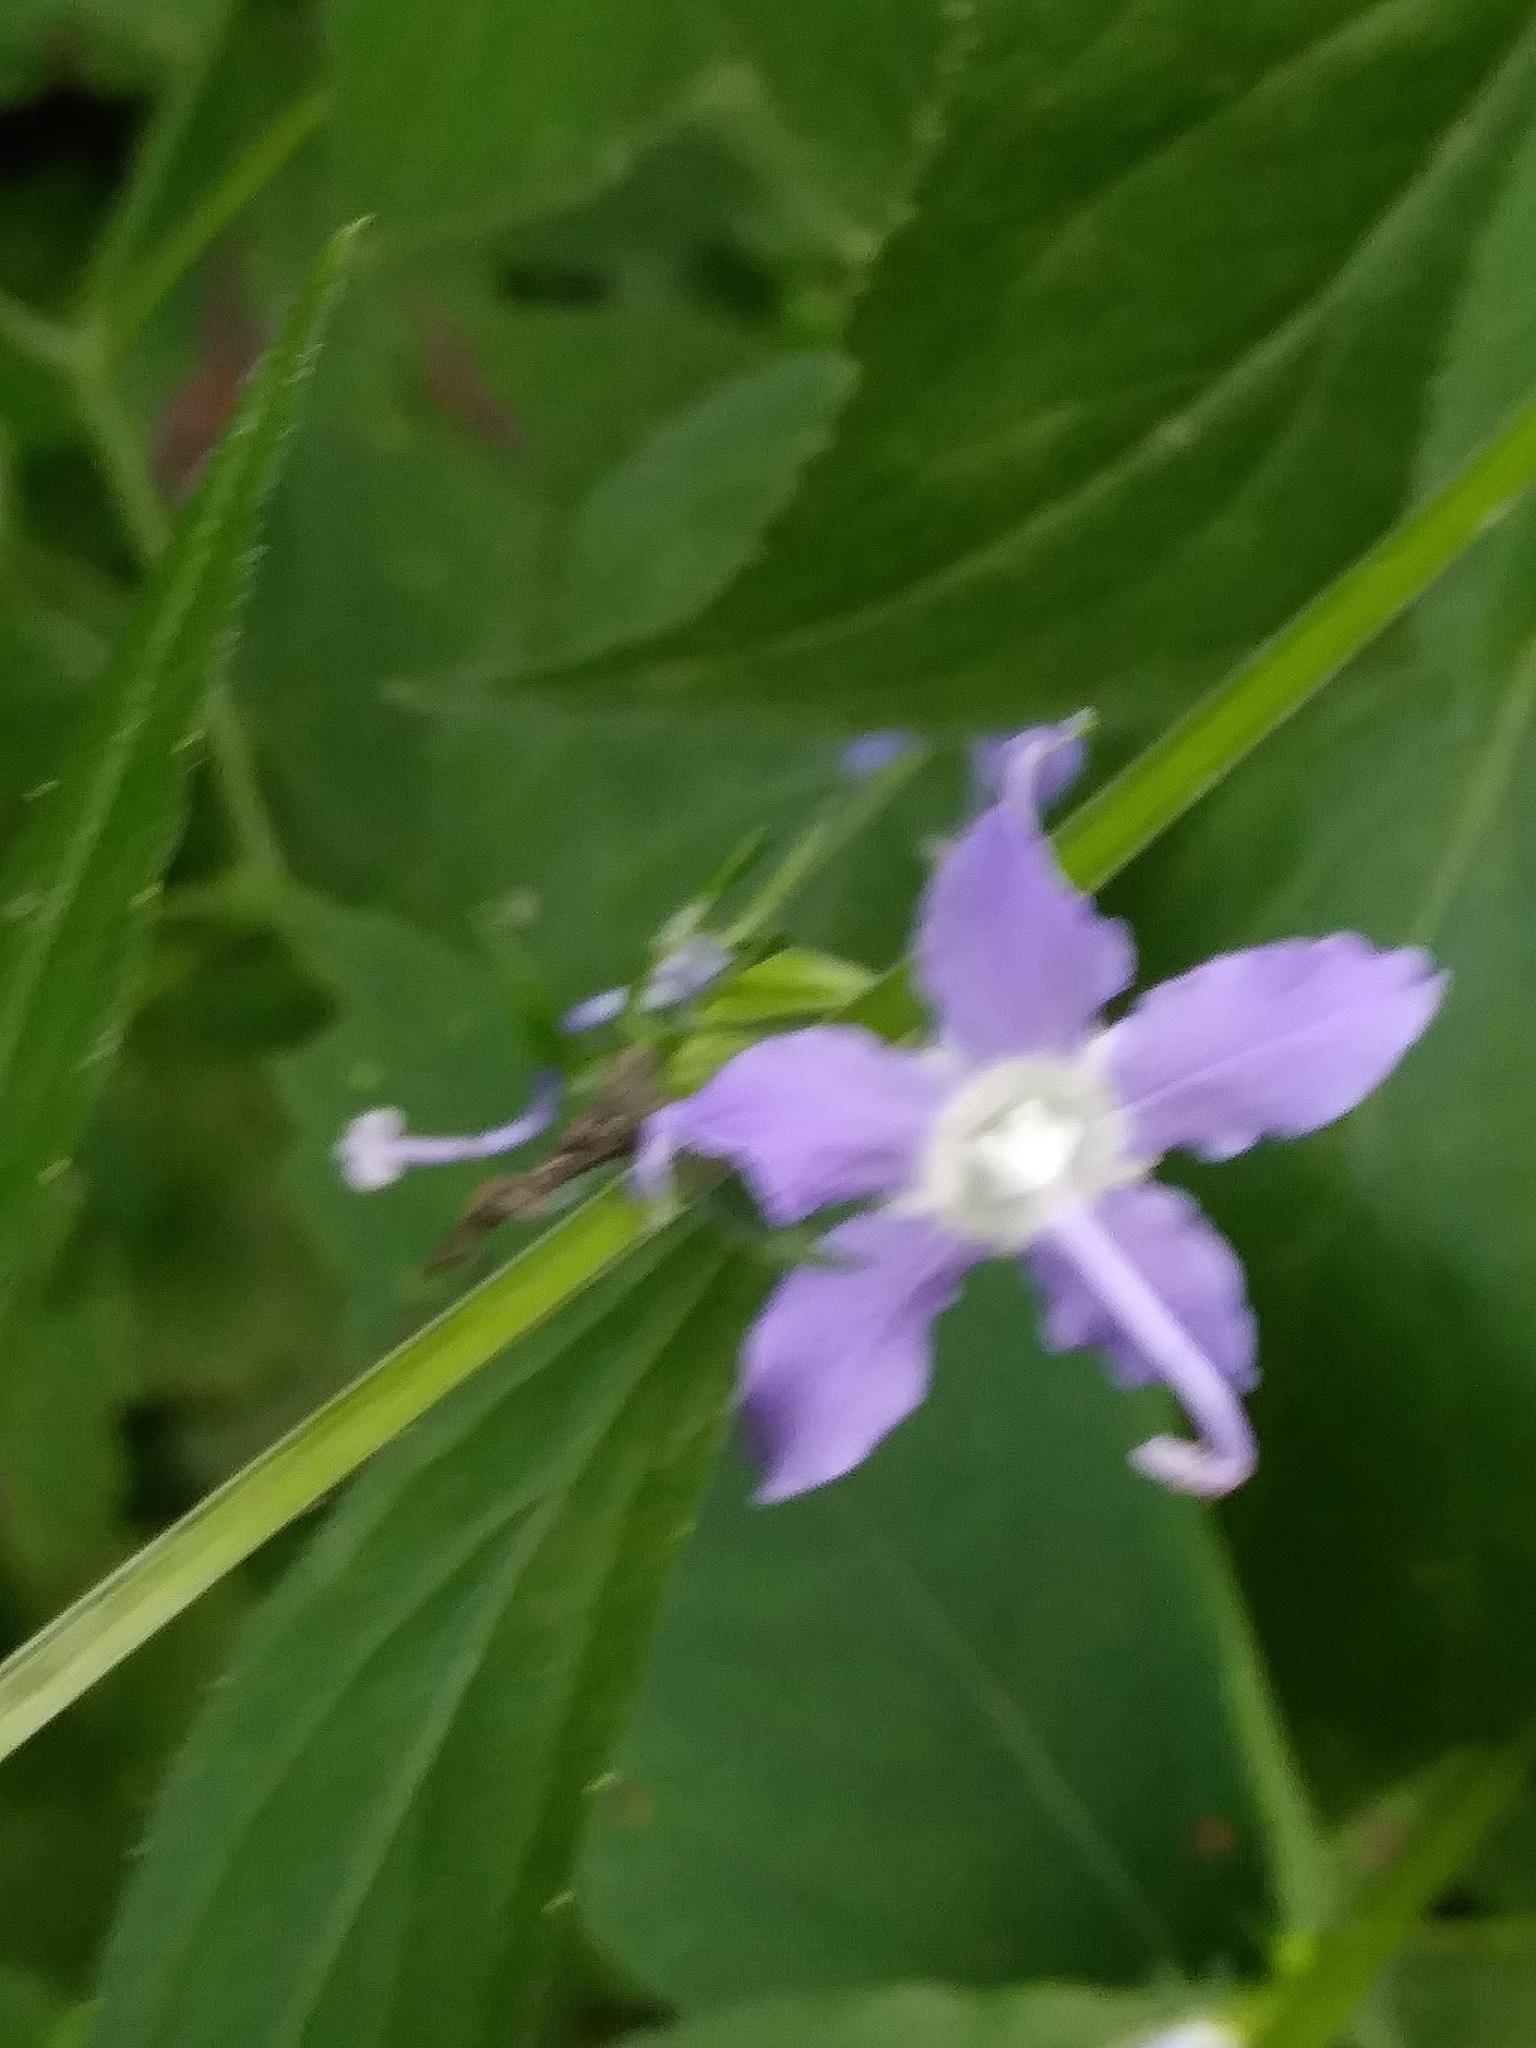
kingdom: Plantae
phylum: Tracheophyta
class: Magnoliopsida
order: Asterales
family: Campanulaceae
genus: Campanulastrum
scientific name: Campanulastrum americanum
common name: American bellflower
